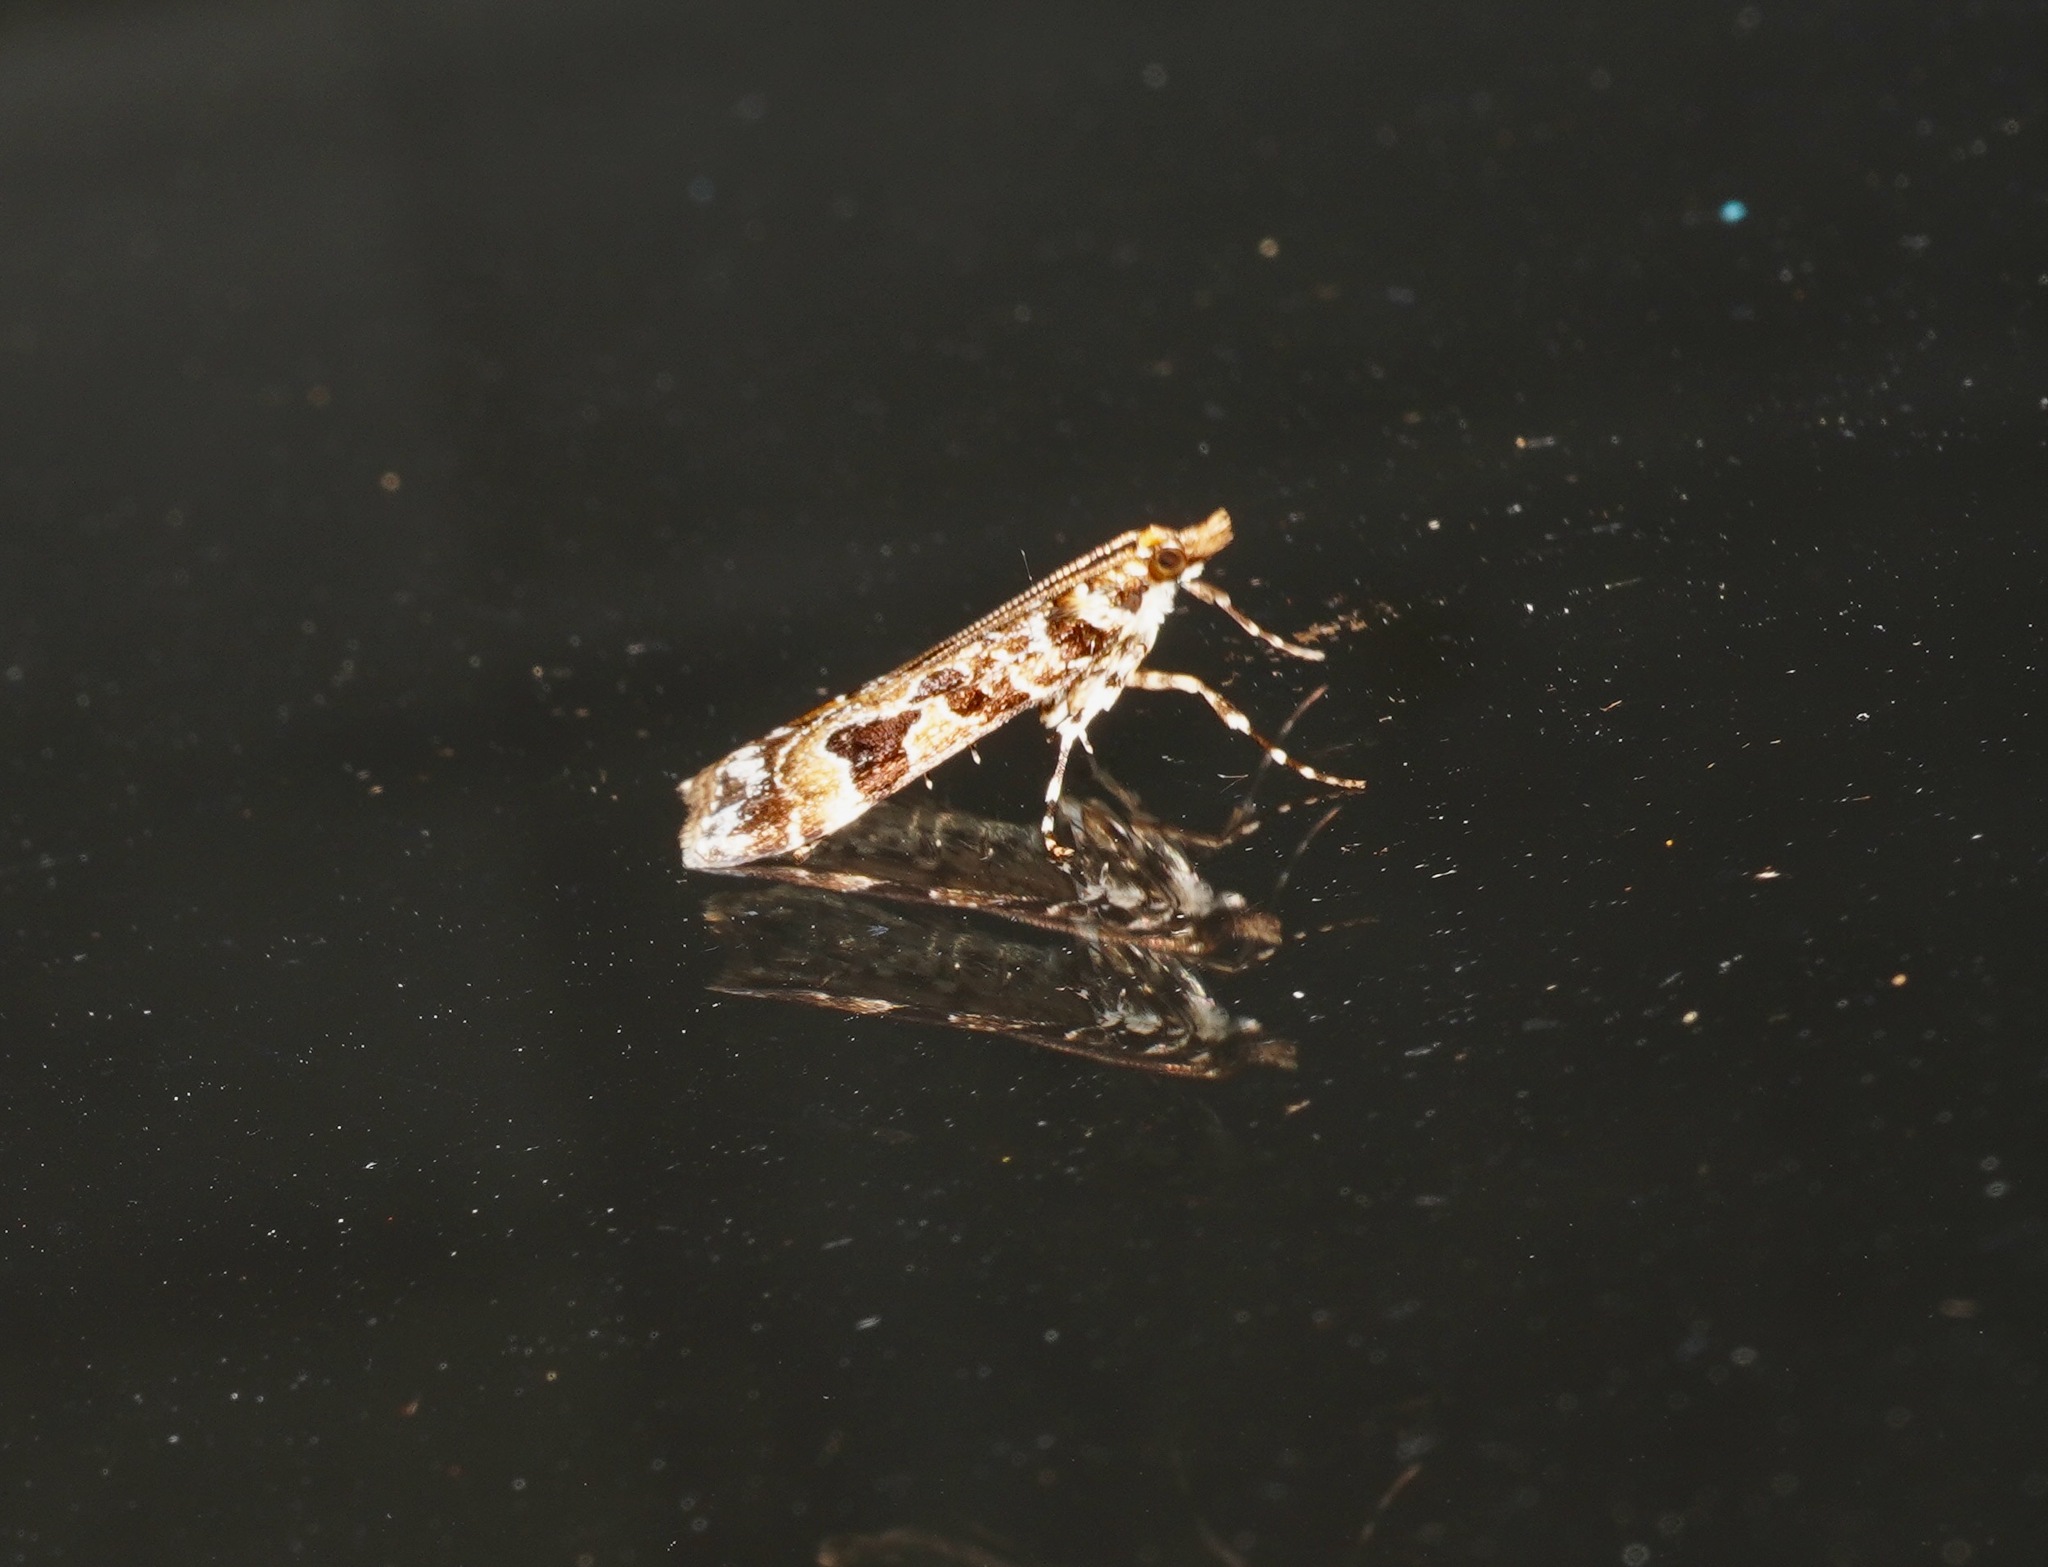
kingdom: Animalia
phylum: Arthropoda
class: Insecta
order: Lepidoptera
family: Crambidae
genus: Scoparia
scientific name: Scoparia ustimacula
